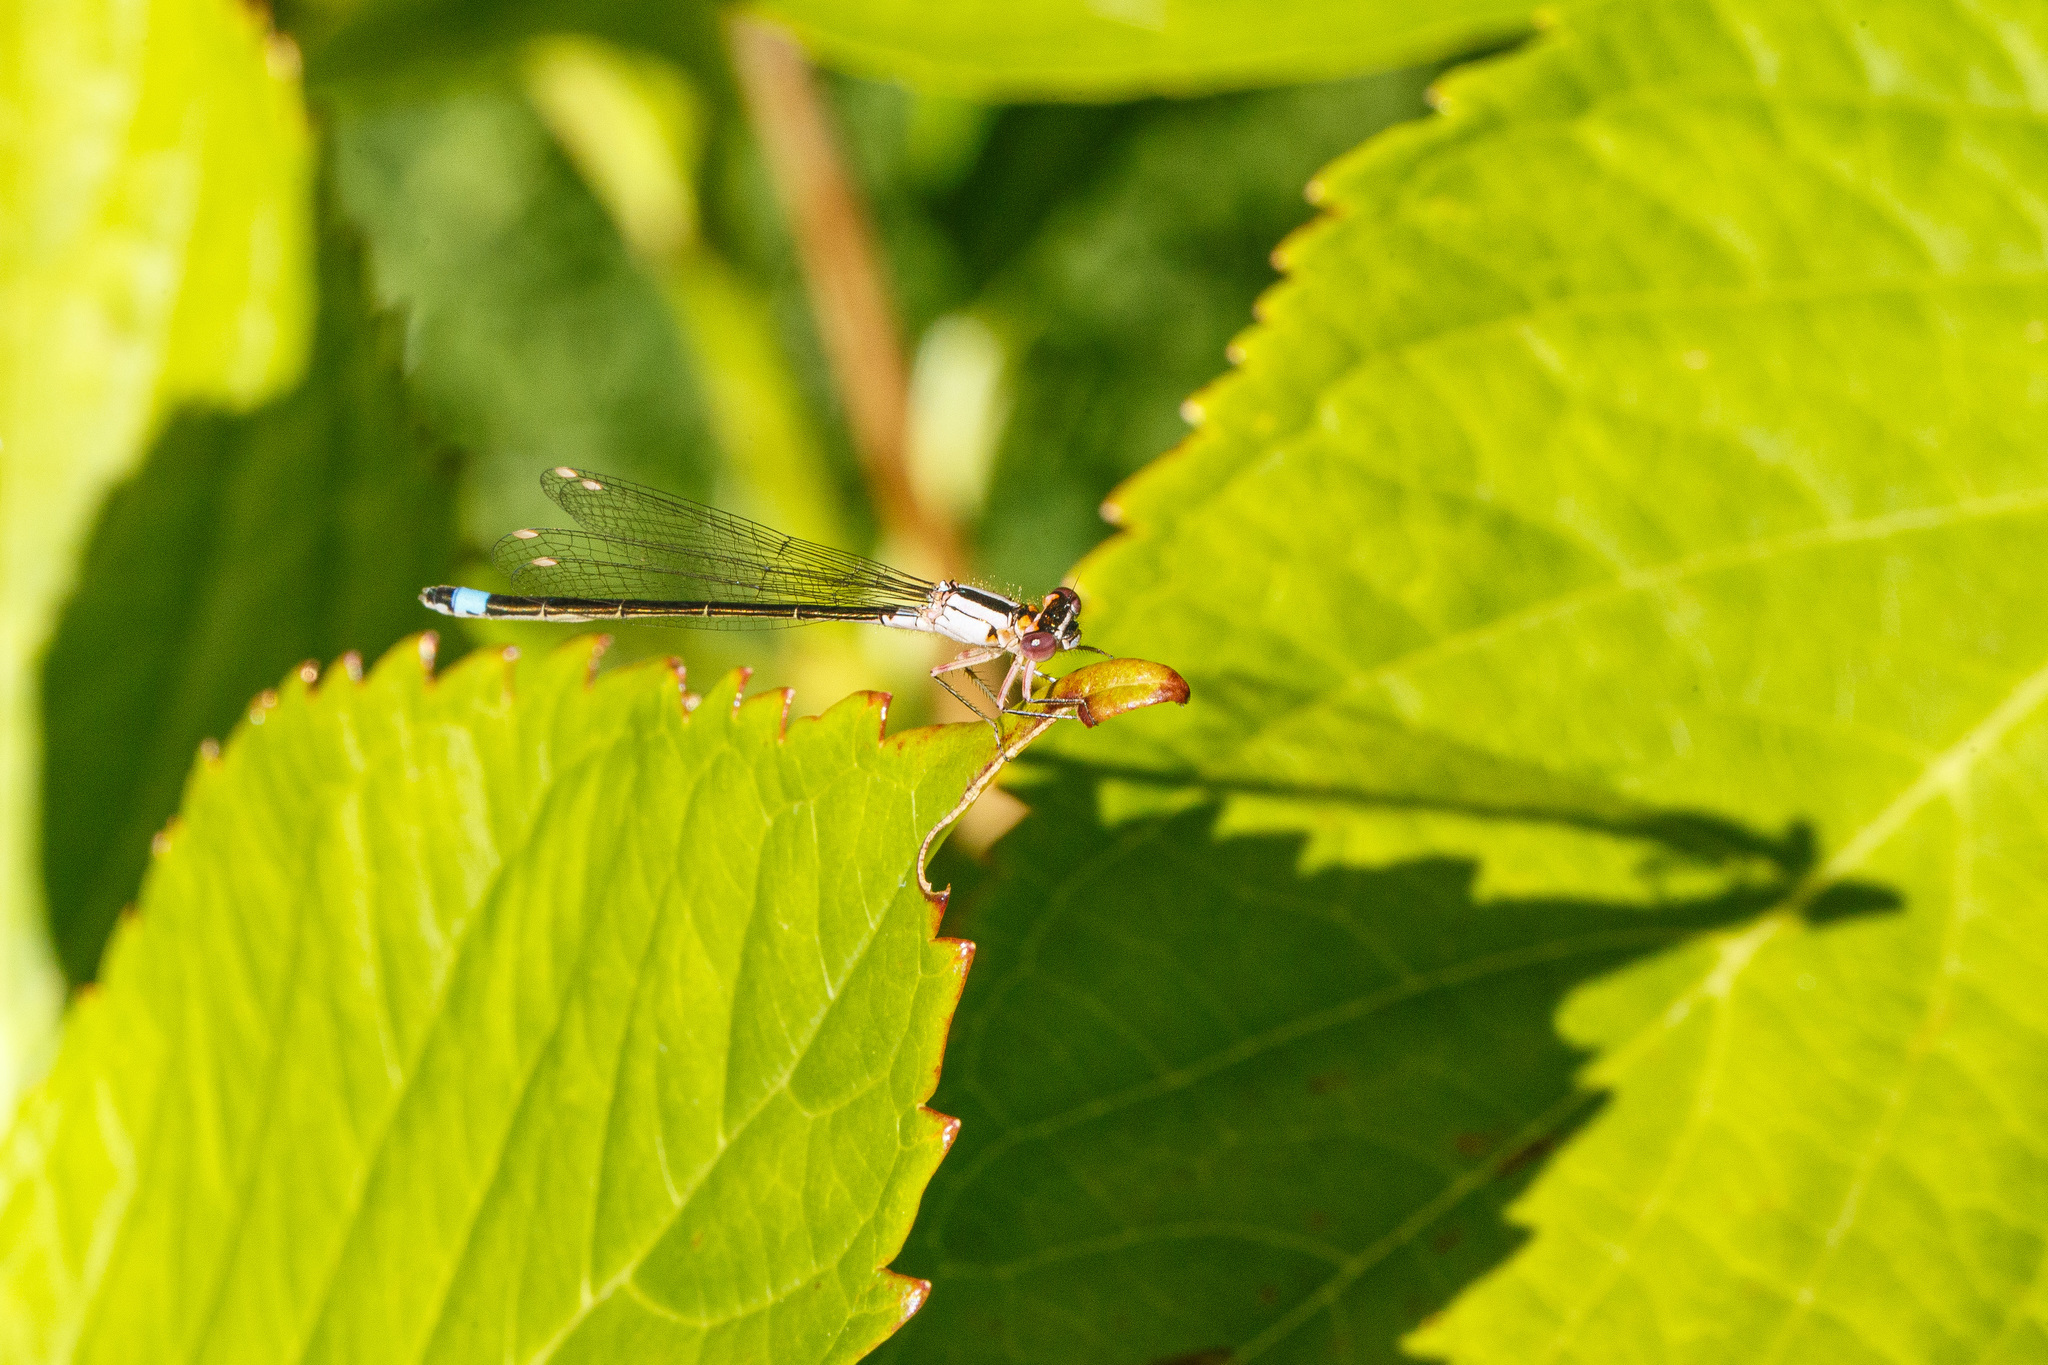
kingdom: Animalia
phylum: Arthropoda
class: Insecta
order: Odonata
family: Coenagrionidae
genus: Ischnura
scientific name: Ischnura cervula
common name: Pacific forktail
